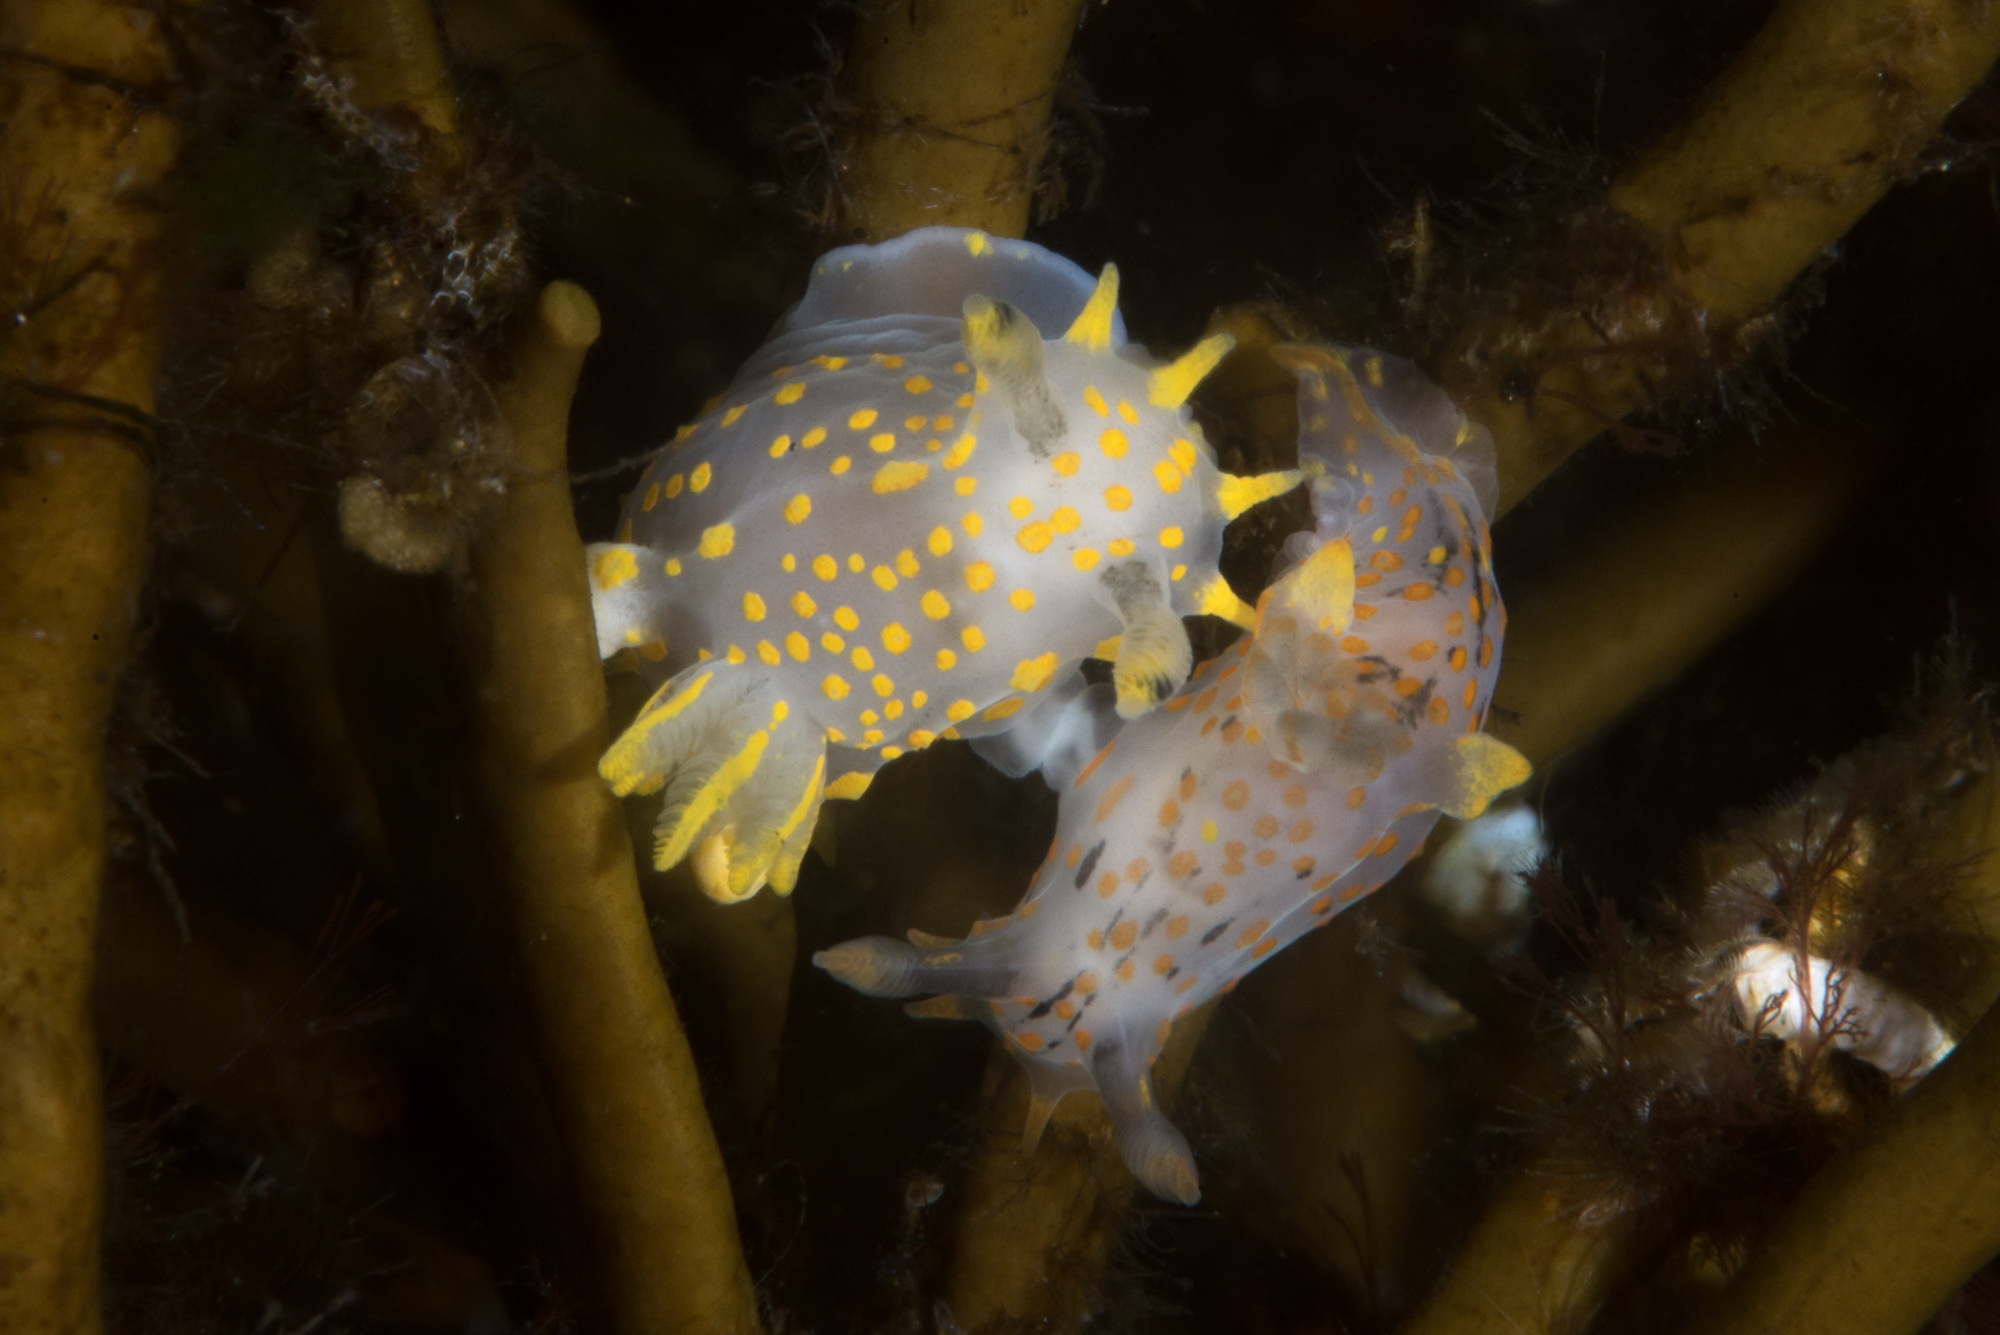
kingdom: Animalia
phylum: Mollusca
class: Gastropoda
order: Nudibranchia
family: Polyceridae
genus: Polycera
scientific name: Polycera quadrilineata
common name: Four-striped polycera
